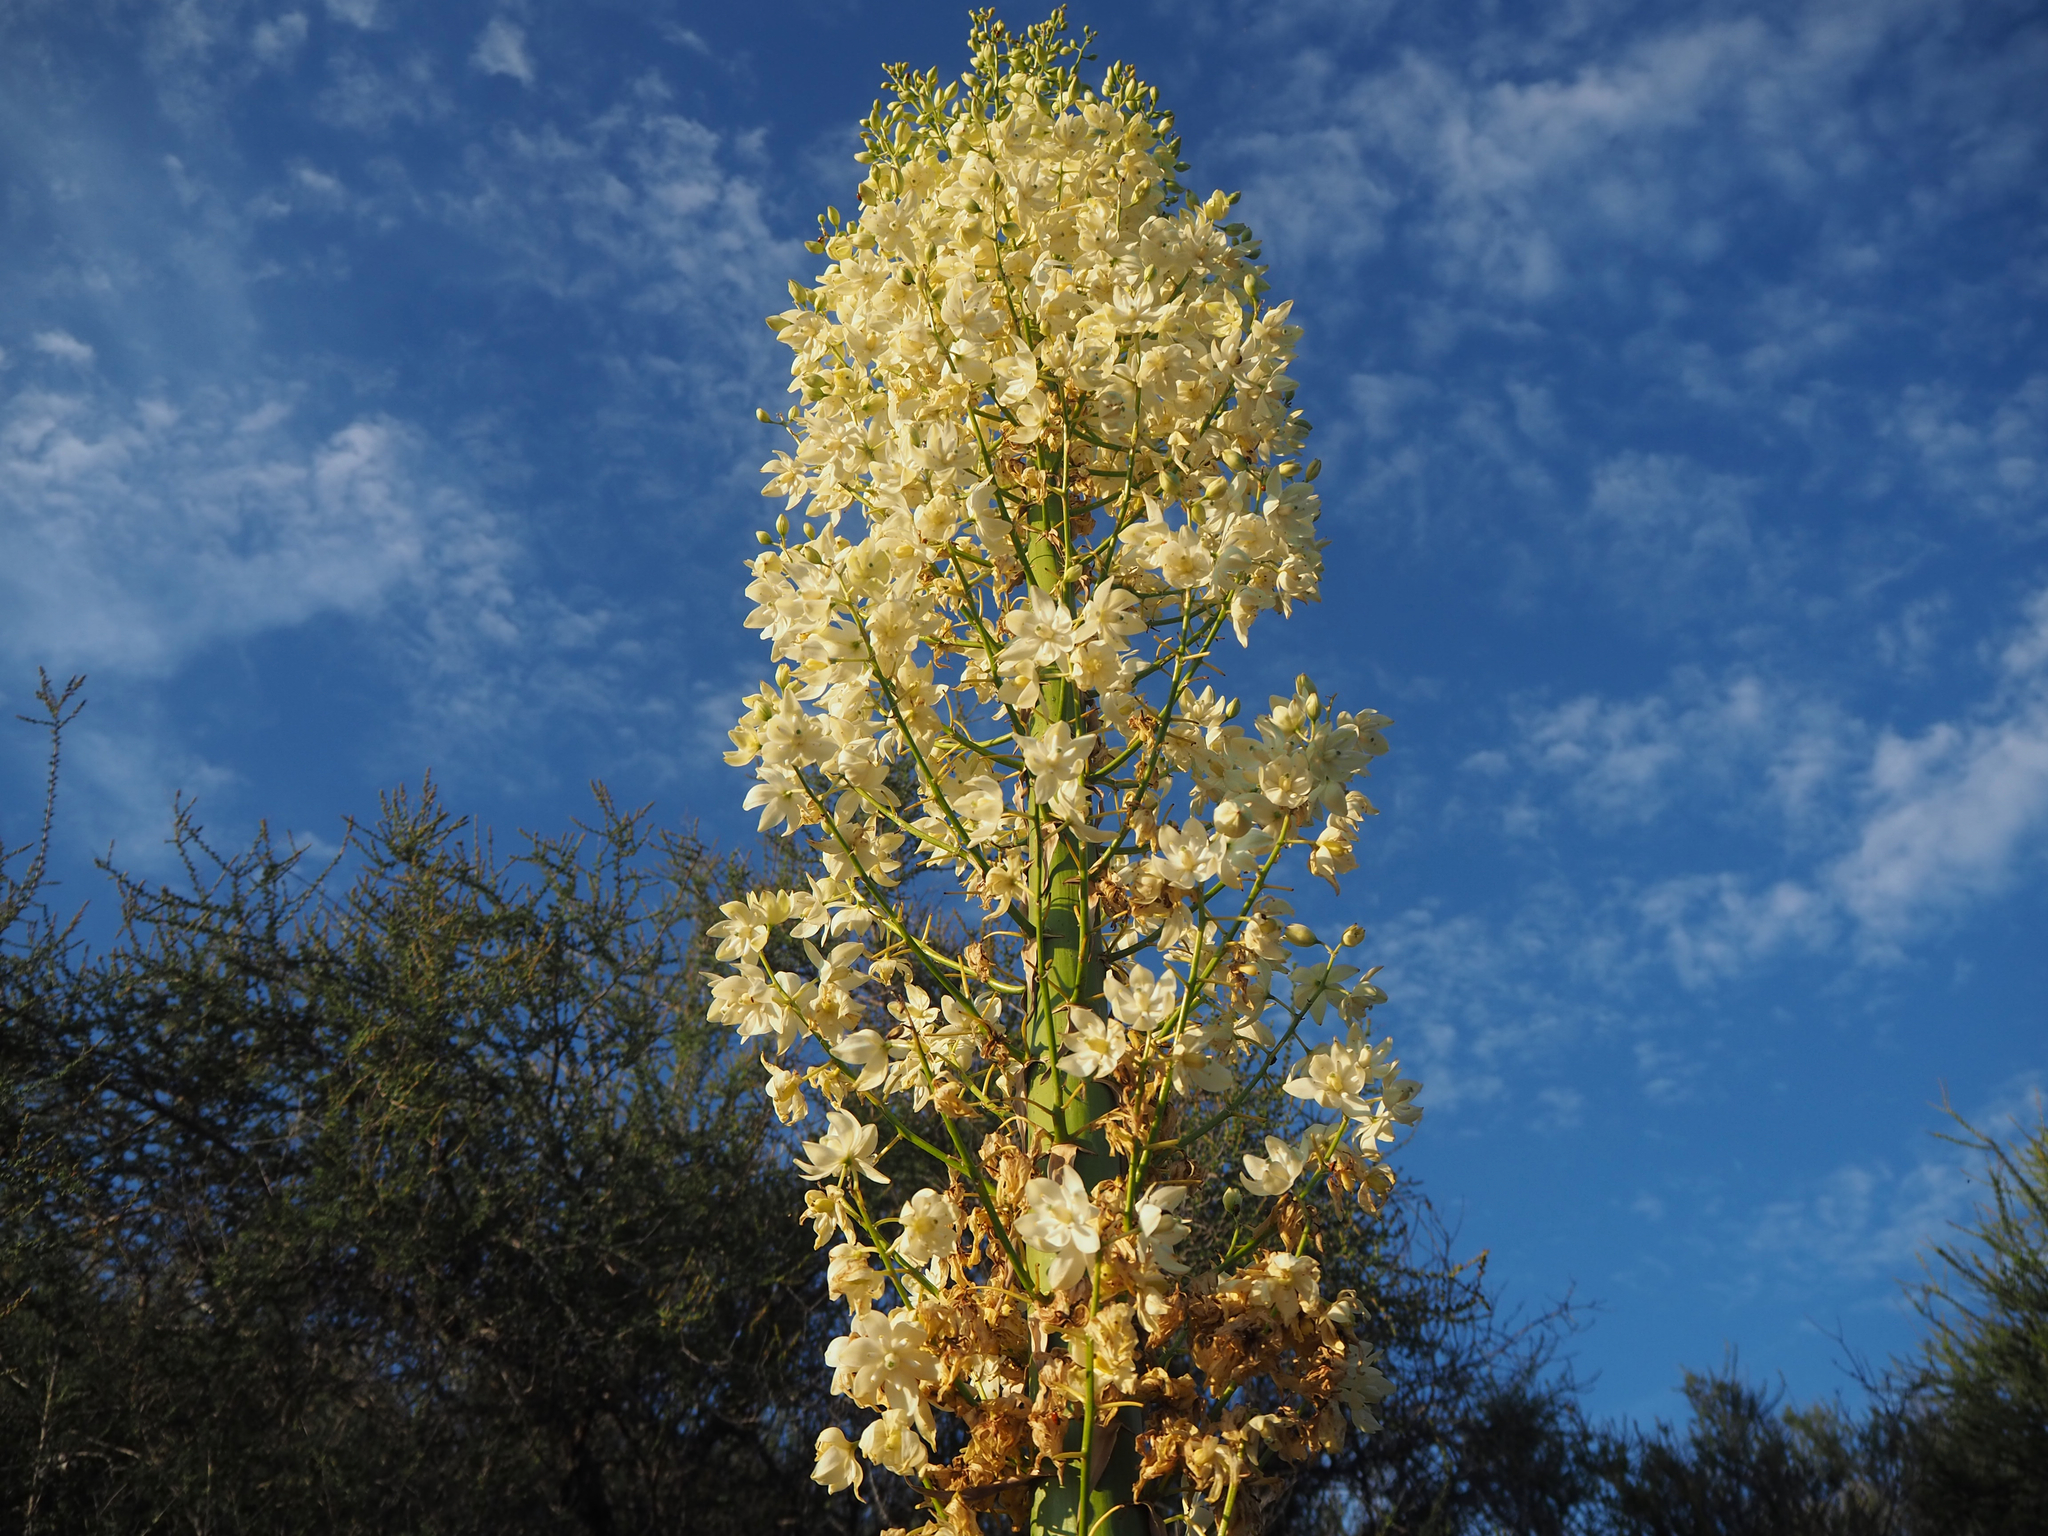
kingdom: Plantae
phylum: Tracheophyta
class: Liliopsida
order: Asparagales
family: Asparagaceae
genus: Hesperoyucca
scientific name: Hesperoyucca whipplei
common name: Our lord's-candle
